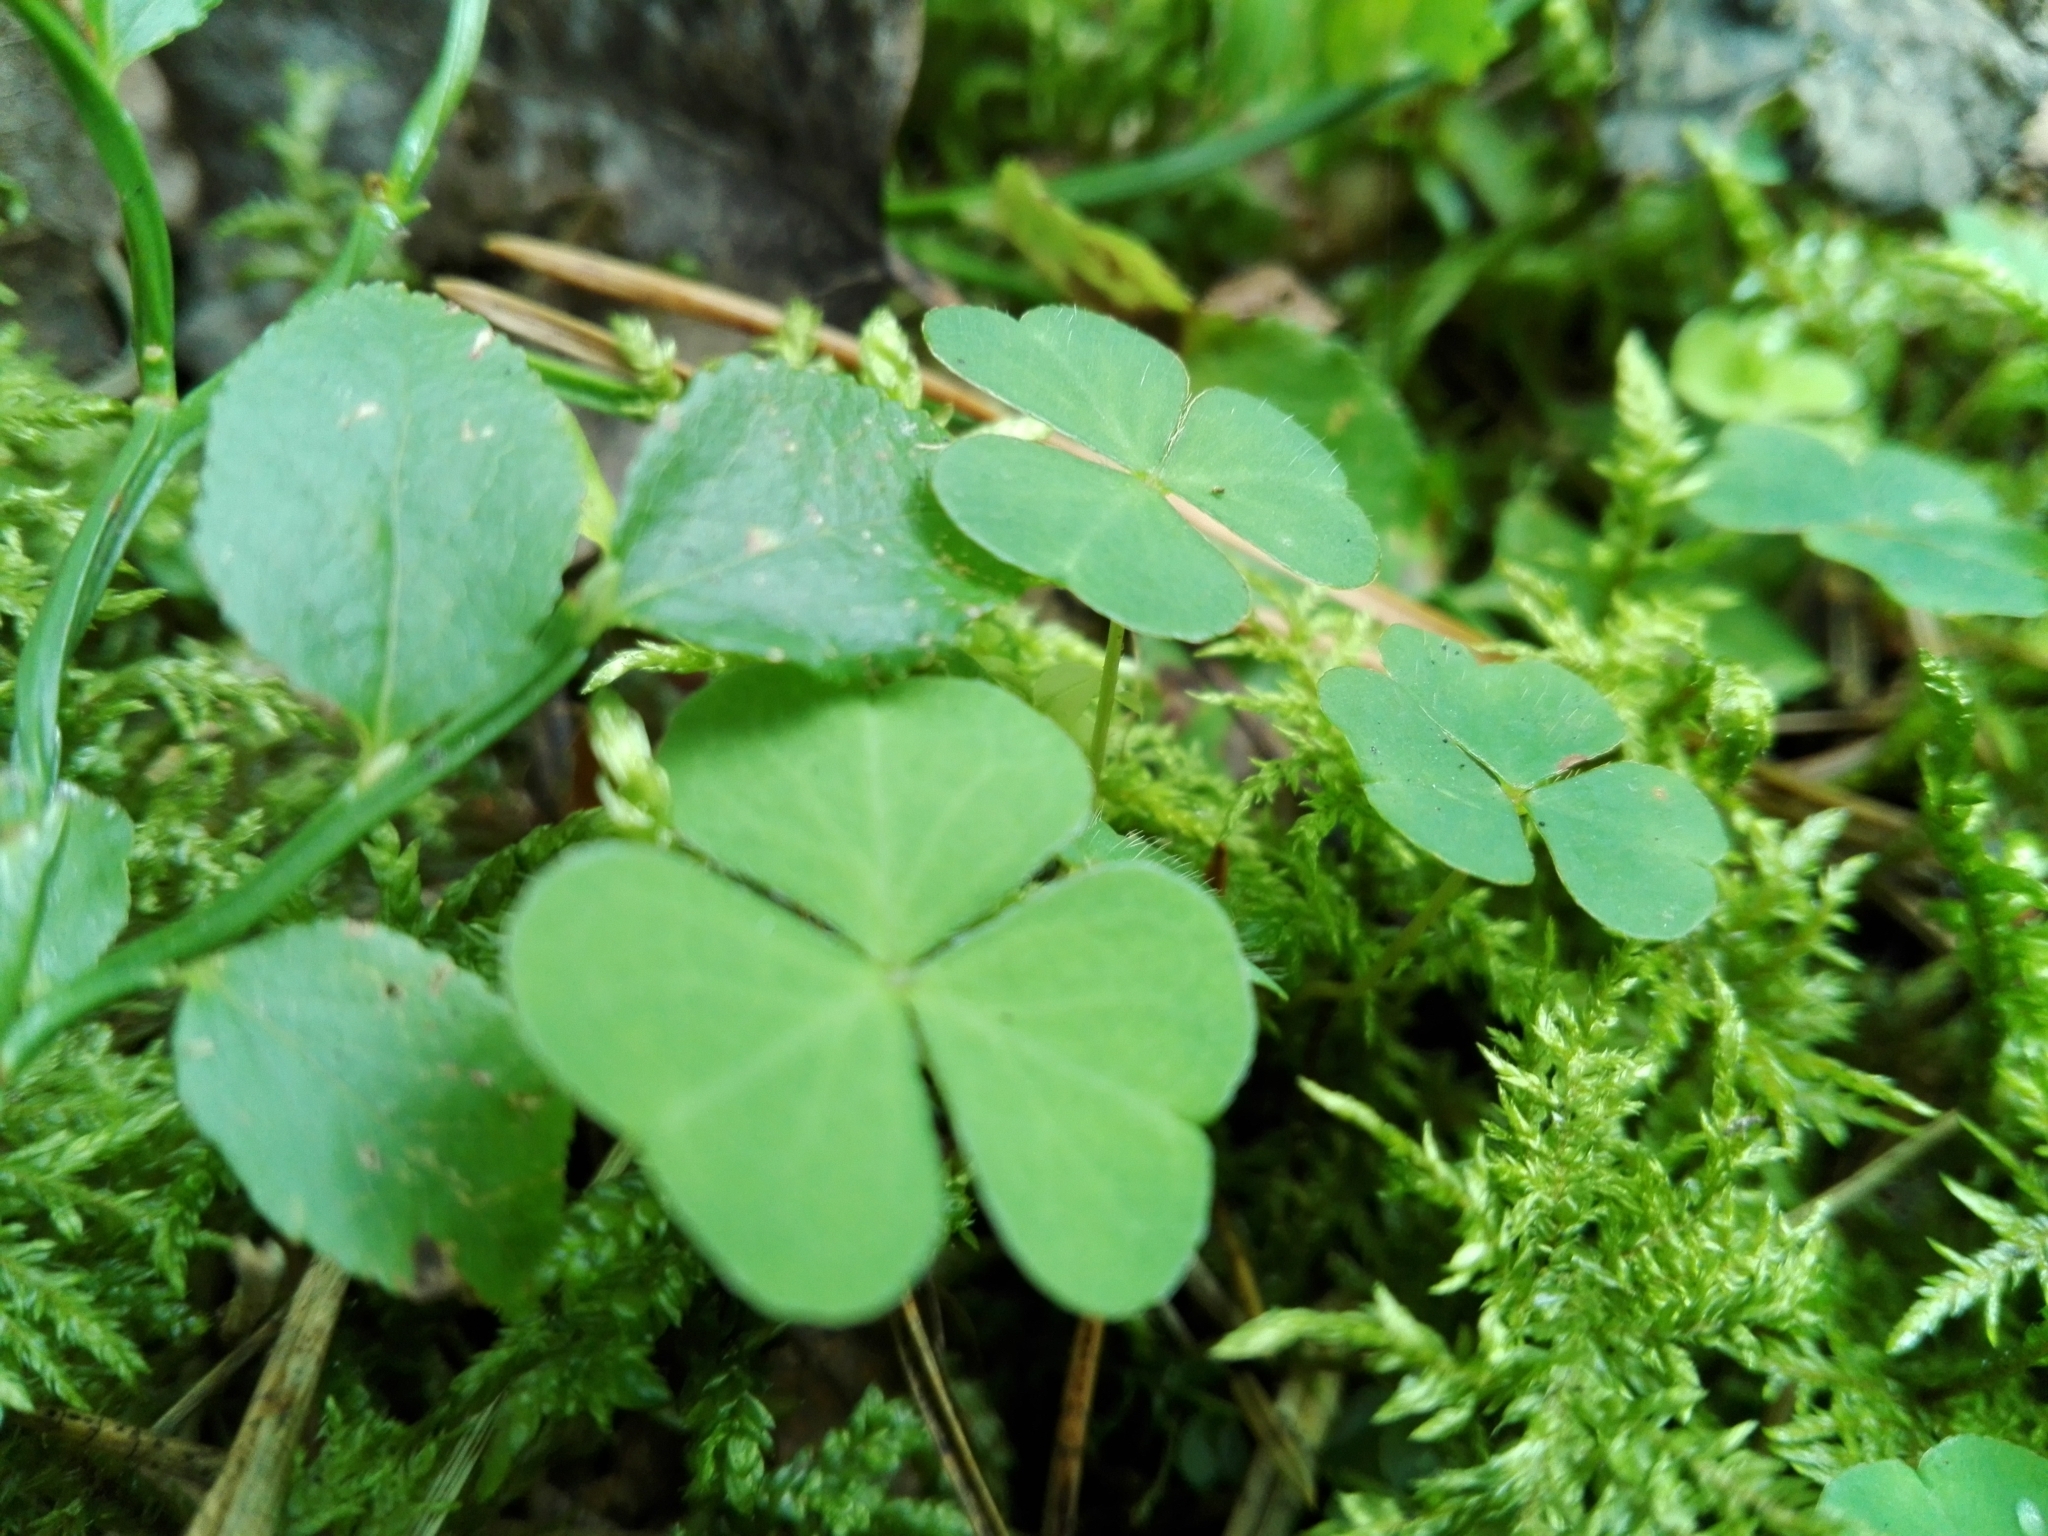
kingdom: Plantae
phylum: Tracheophyta
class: Magnoliopsida
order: Oxalidales
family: Oxalidaceae
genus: Oxalis
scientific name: Oxalis acetosella
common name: Wood-sorrel
